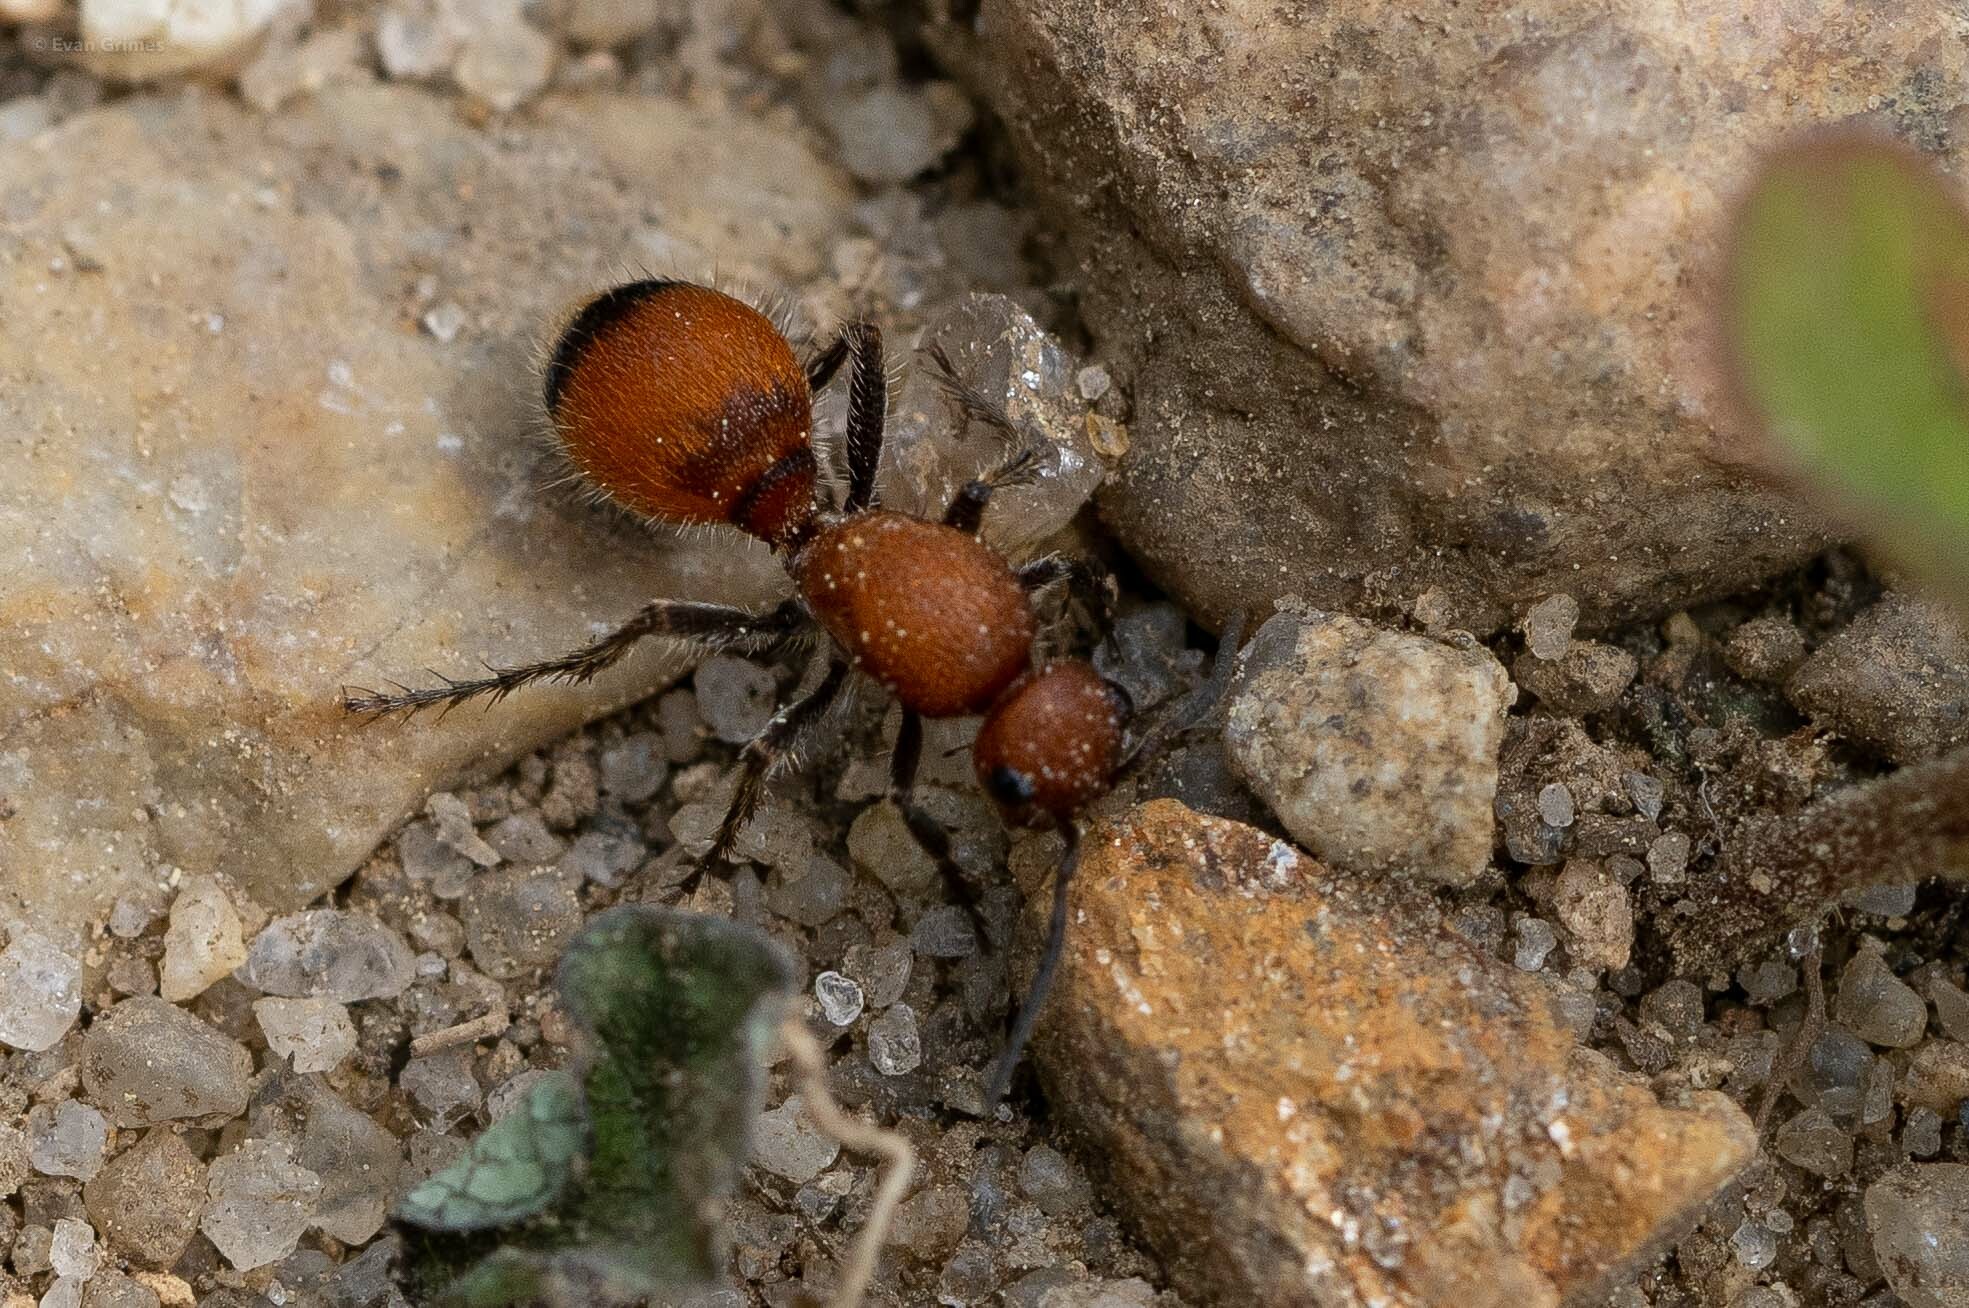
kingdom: Animalia
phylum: Arthropoda
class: Insecta
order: Hymenoptera
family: Mutillidae
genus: Dasymutilla
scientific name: Dasymutilla
